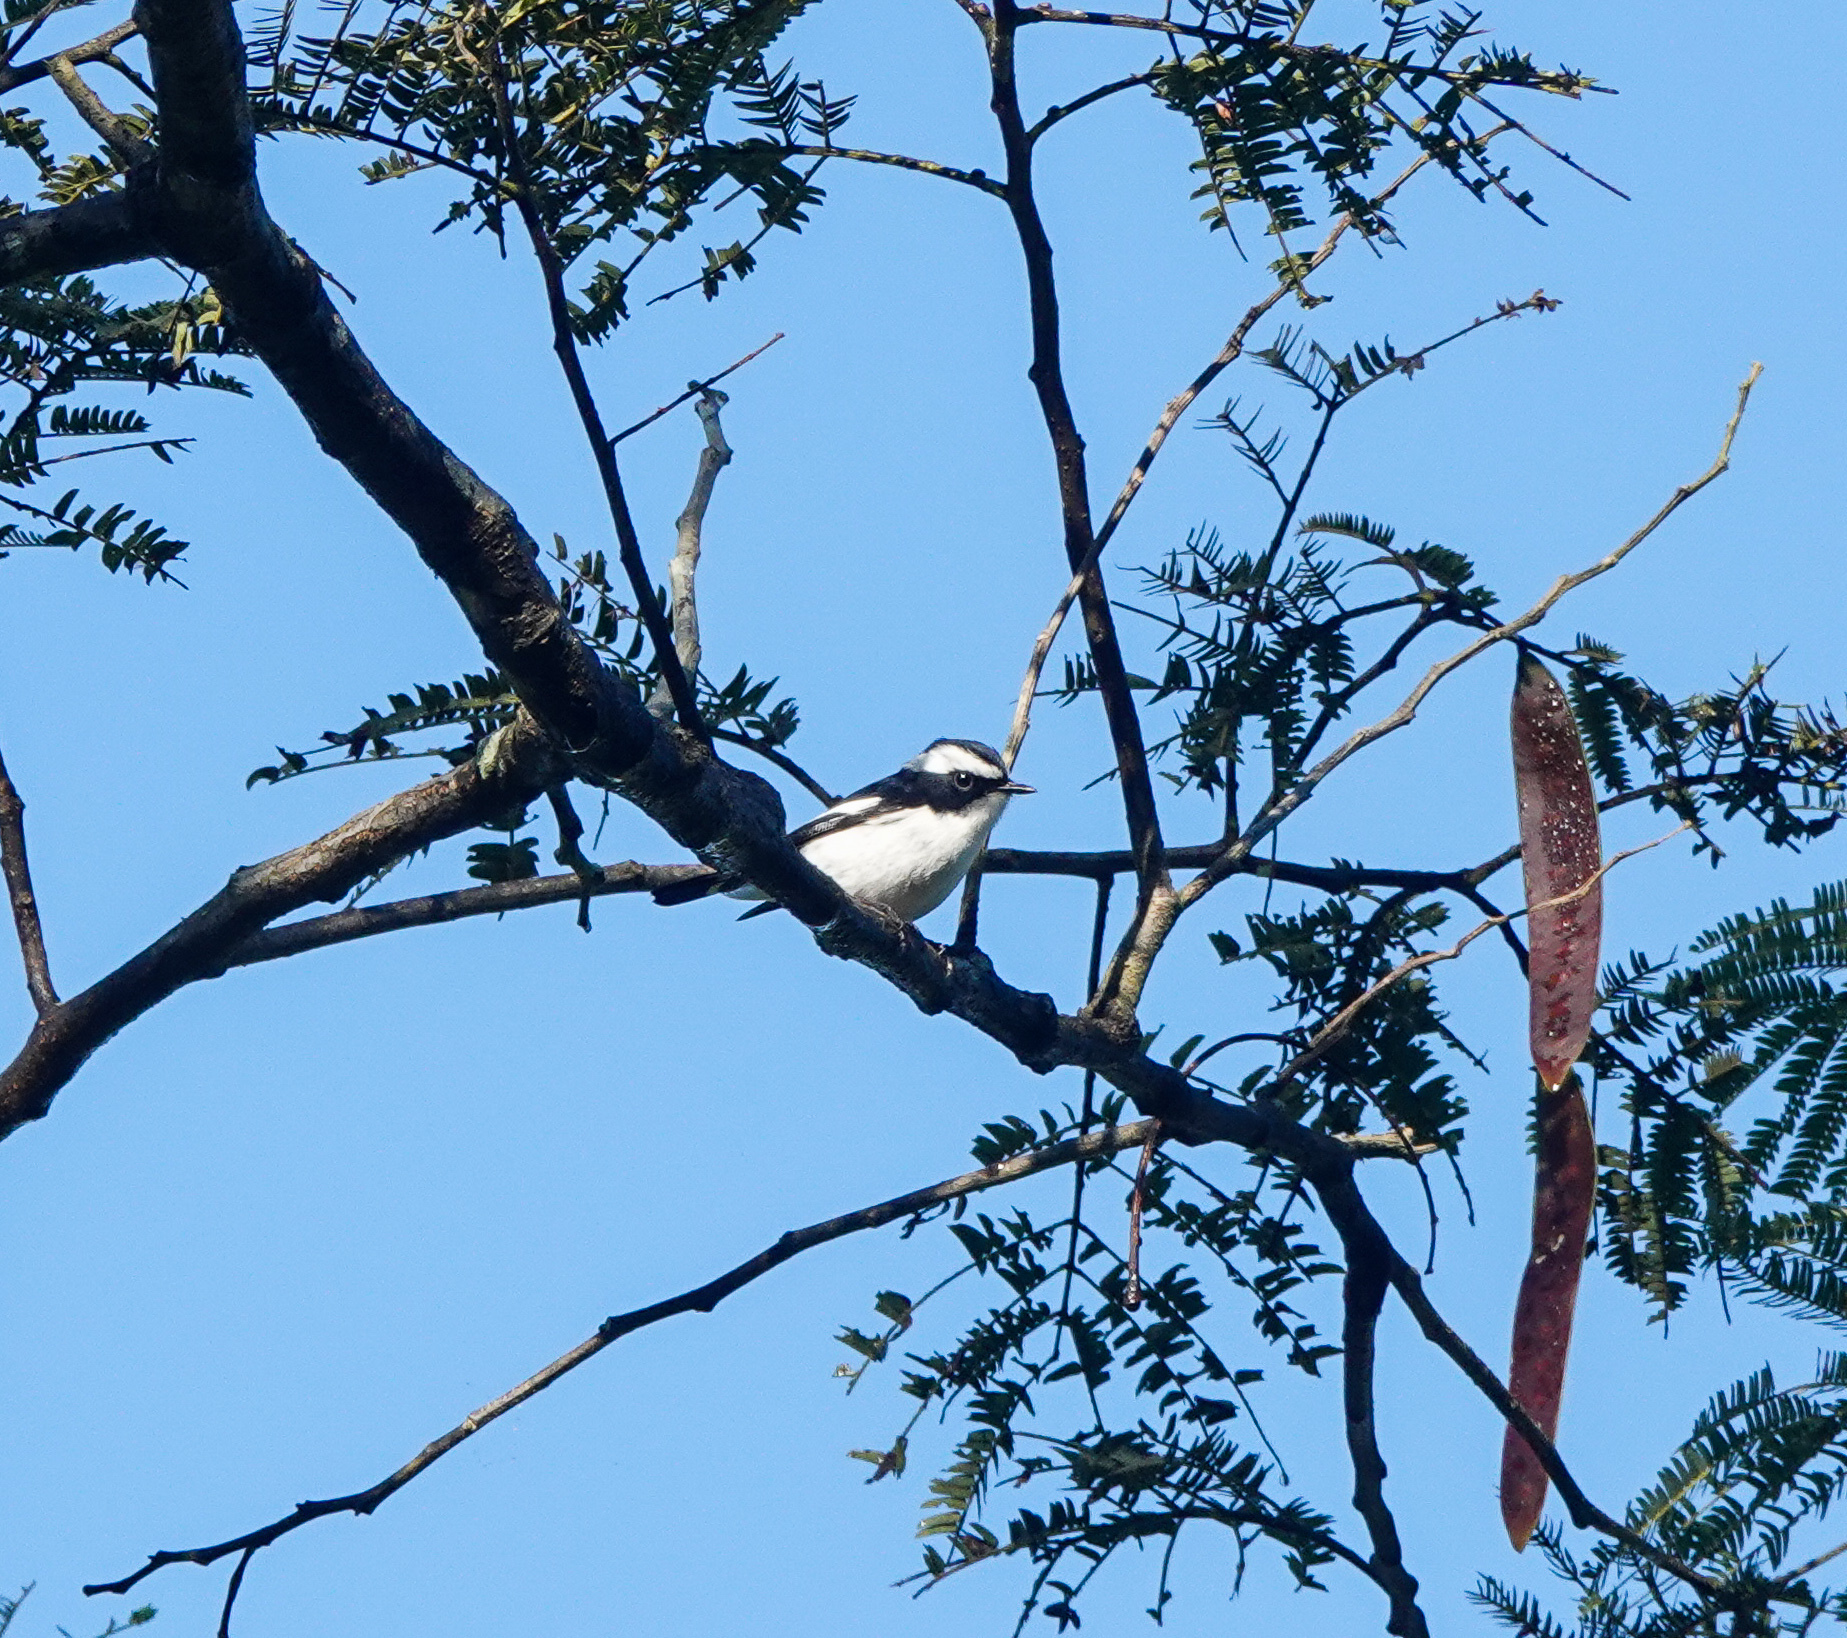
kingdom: Animalia
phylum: Chordata
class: Aves
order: Passeriformes
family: Muscicapidae
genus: Ficedula
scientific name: Ficedula westermanni
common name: Little pied flycatcher
